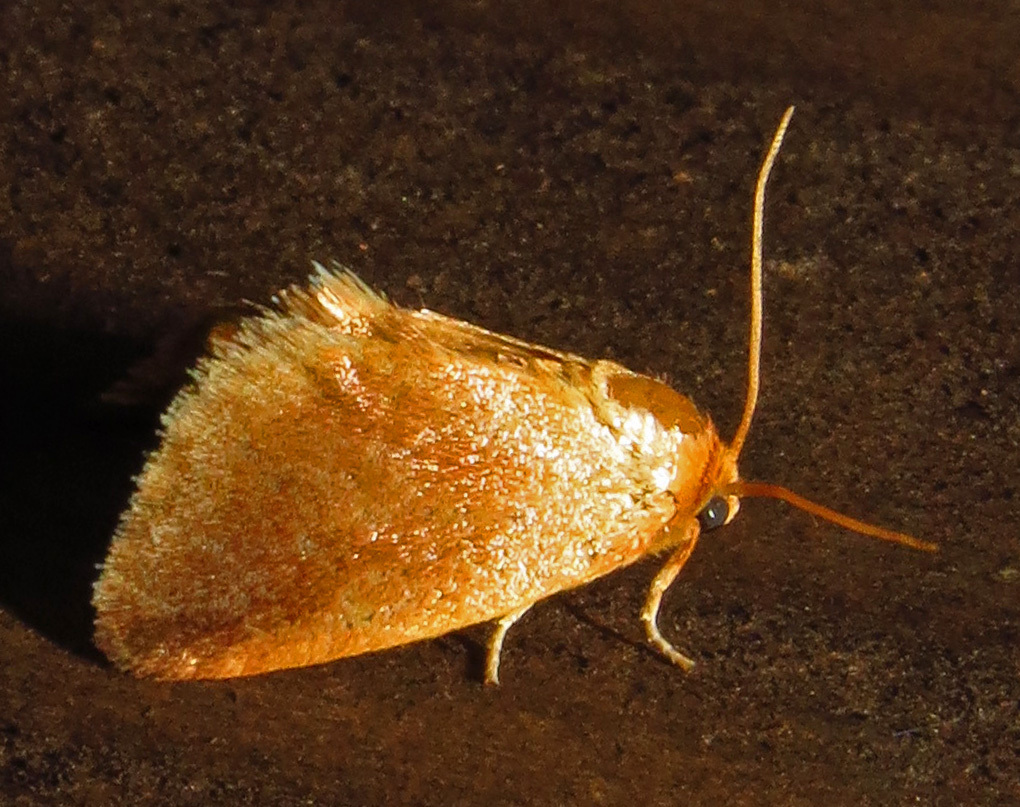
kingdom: Animalia
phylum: Arthropoda
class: Insecta
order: Lepidoptera
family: Limacodidae
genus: Tortricidia
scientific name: Tortricidia testacea
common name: Early button slug moth
